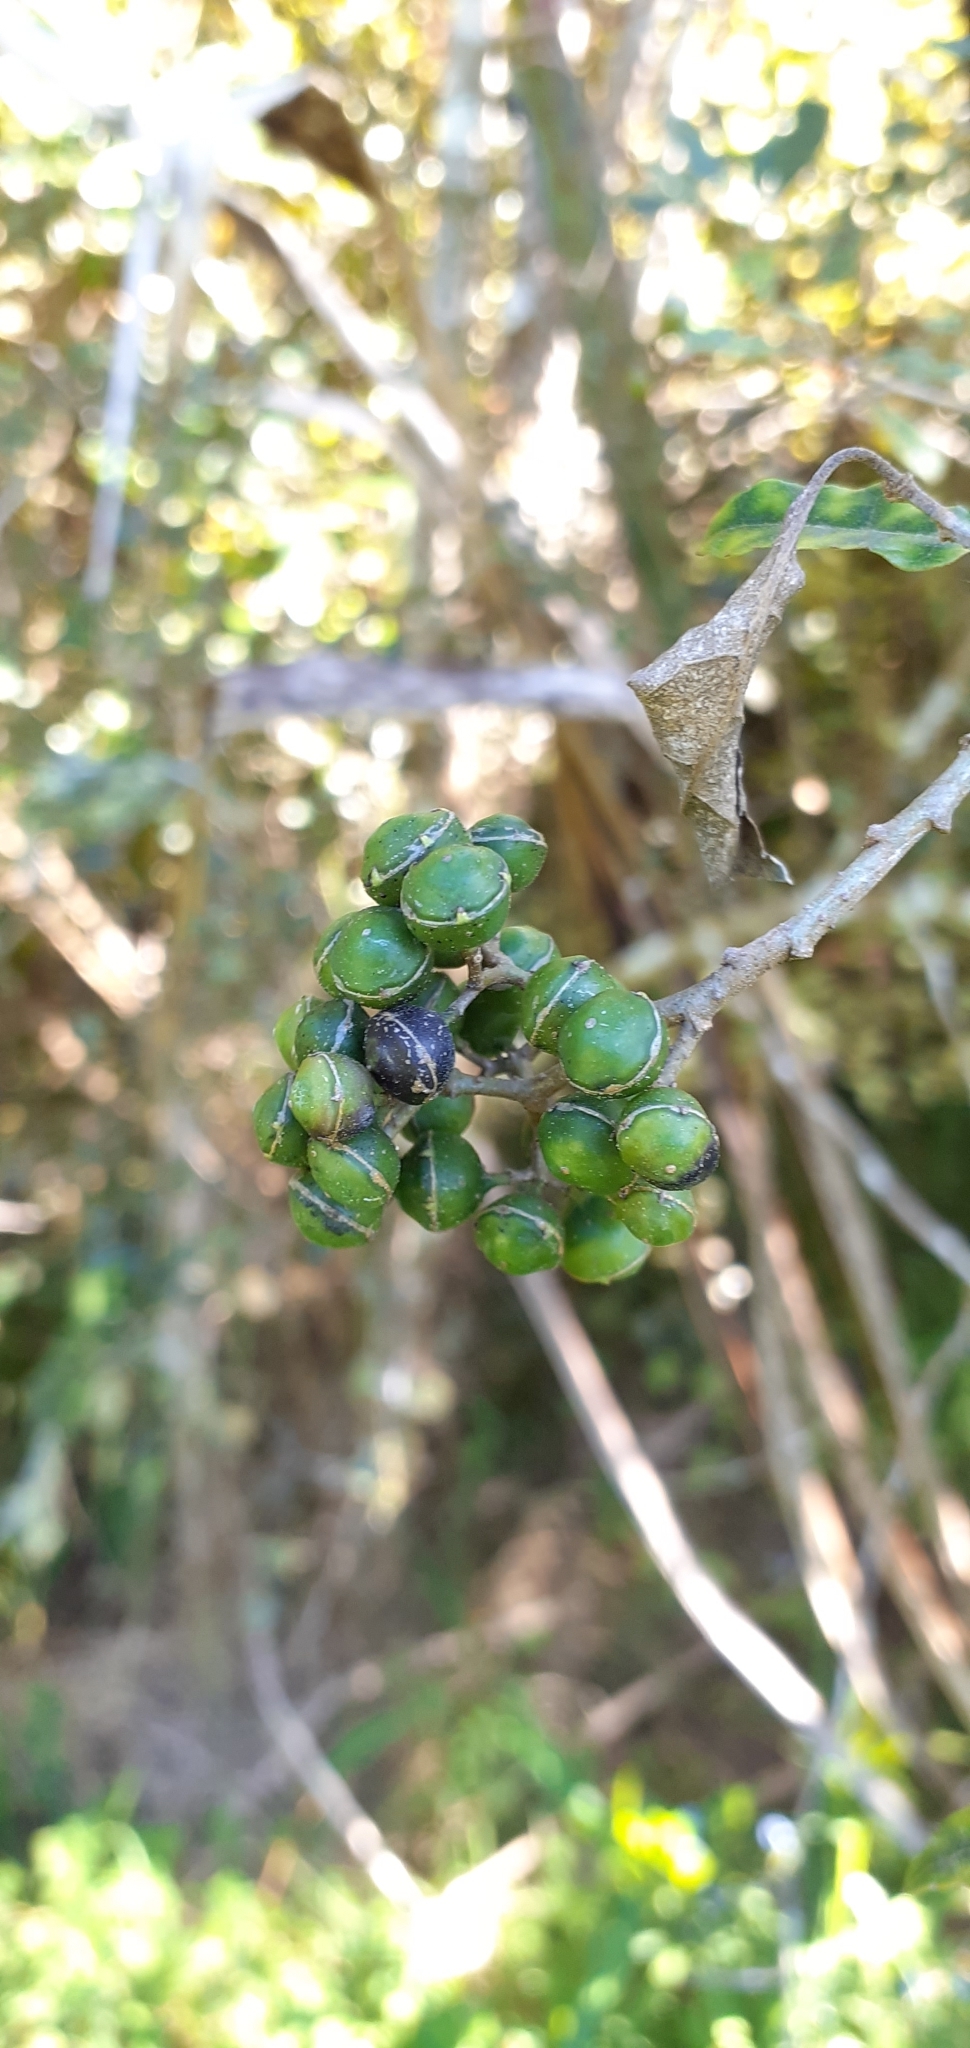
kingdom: Plantae
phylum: Tracheophyta
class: Magnoliopsida
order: Asterales
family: Rousseaceae
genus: Carpodetus
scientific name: Carpodetus serratus
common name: White mapau
